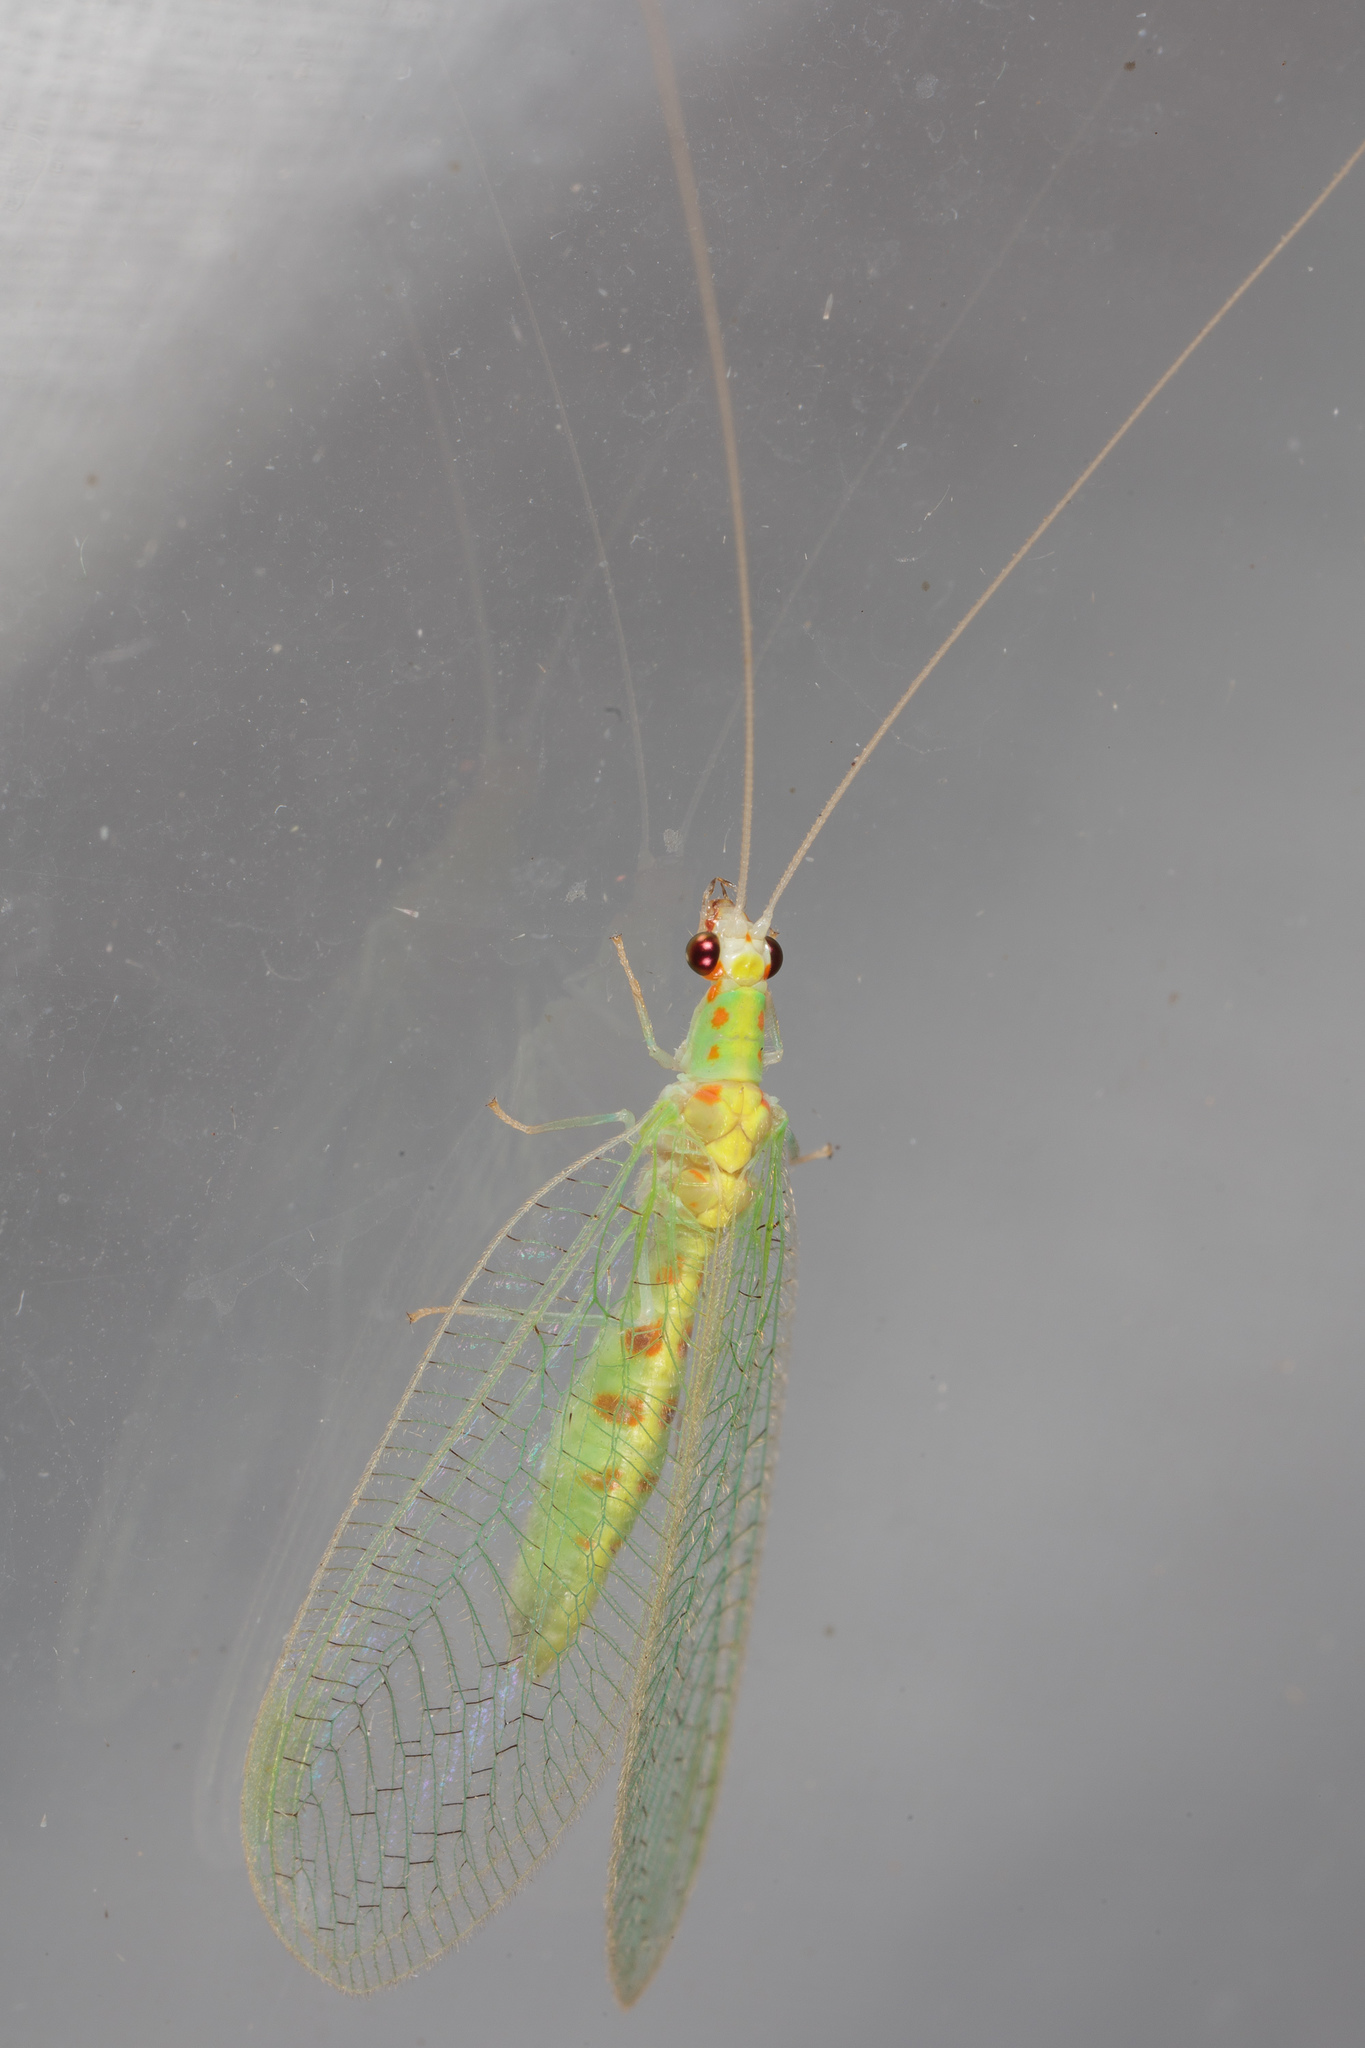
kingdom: Animalia
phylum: Arthropoda
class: Insecta
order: Neuroptera
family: Chrysopidae
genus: Chrysopa
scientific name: Chrysopa quadripunctata
